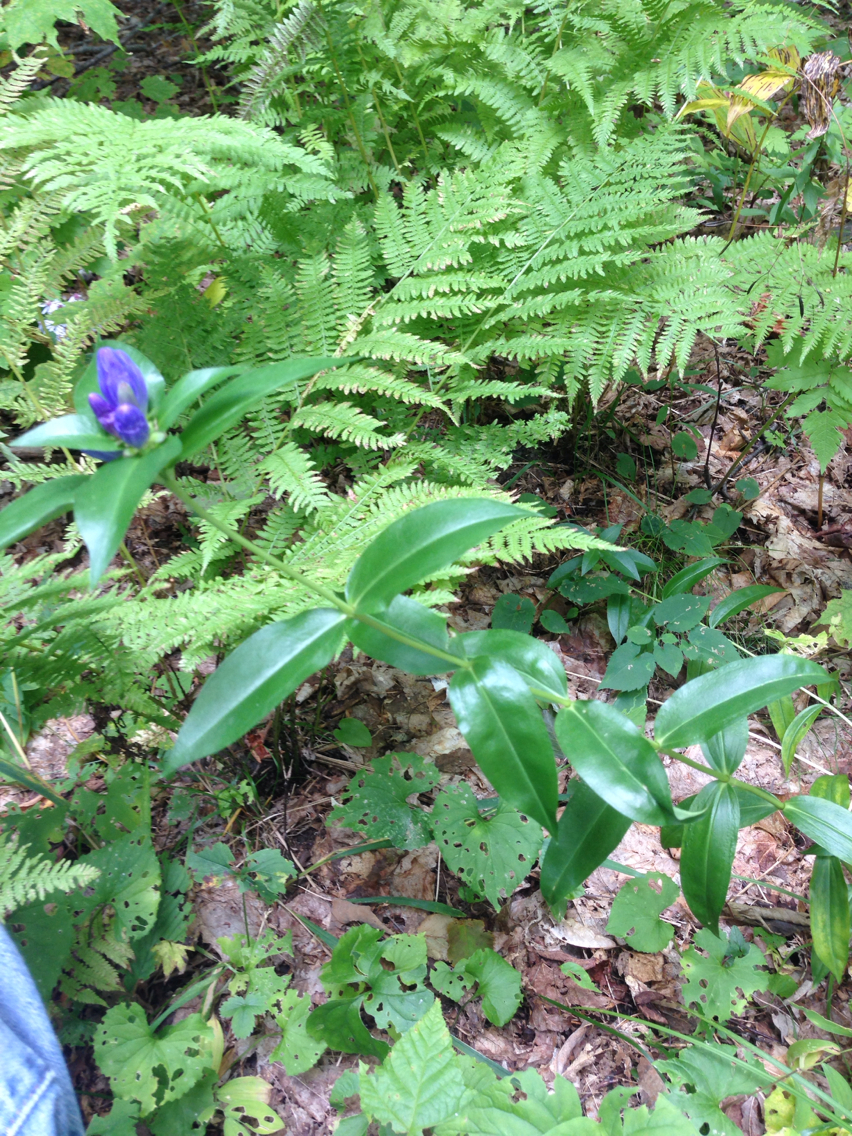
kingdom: Plantae
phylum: Tracheophyta
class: Magnoliopsida
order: Gentianales
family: Gentianaceae
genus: Gentiana
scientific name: Gentiana clausa
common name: Blind gentian
